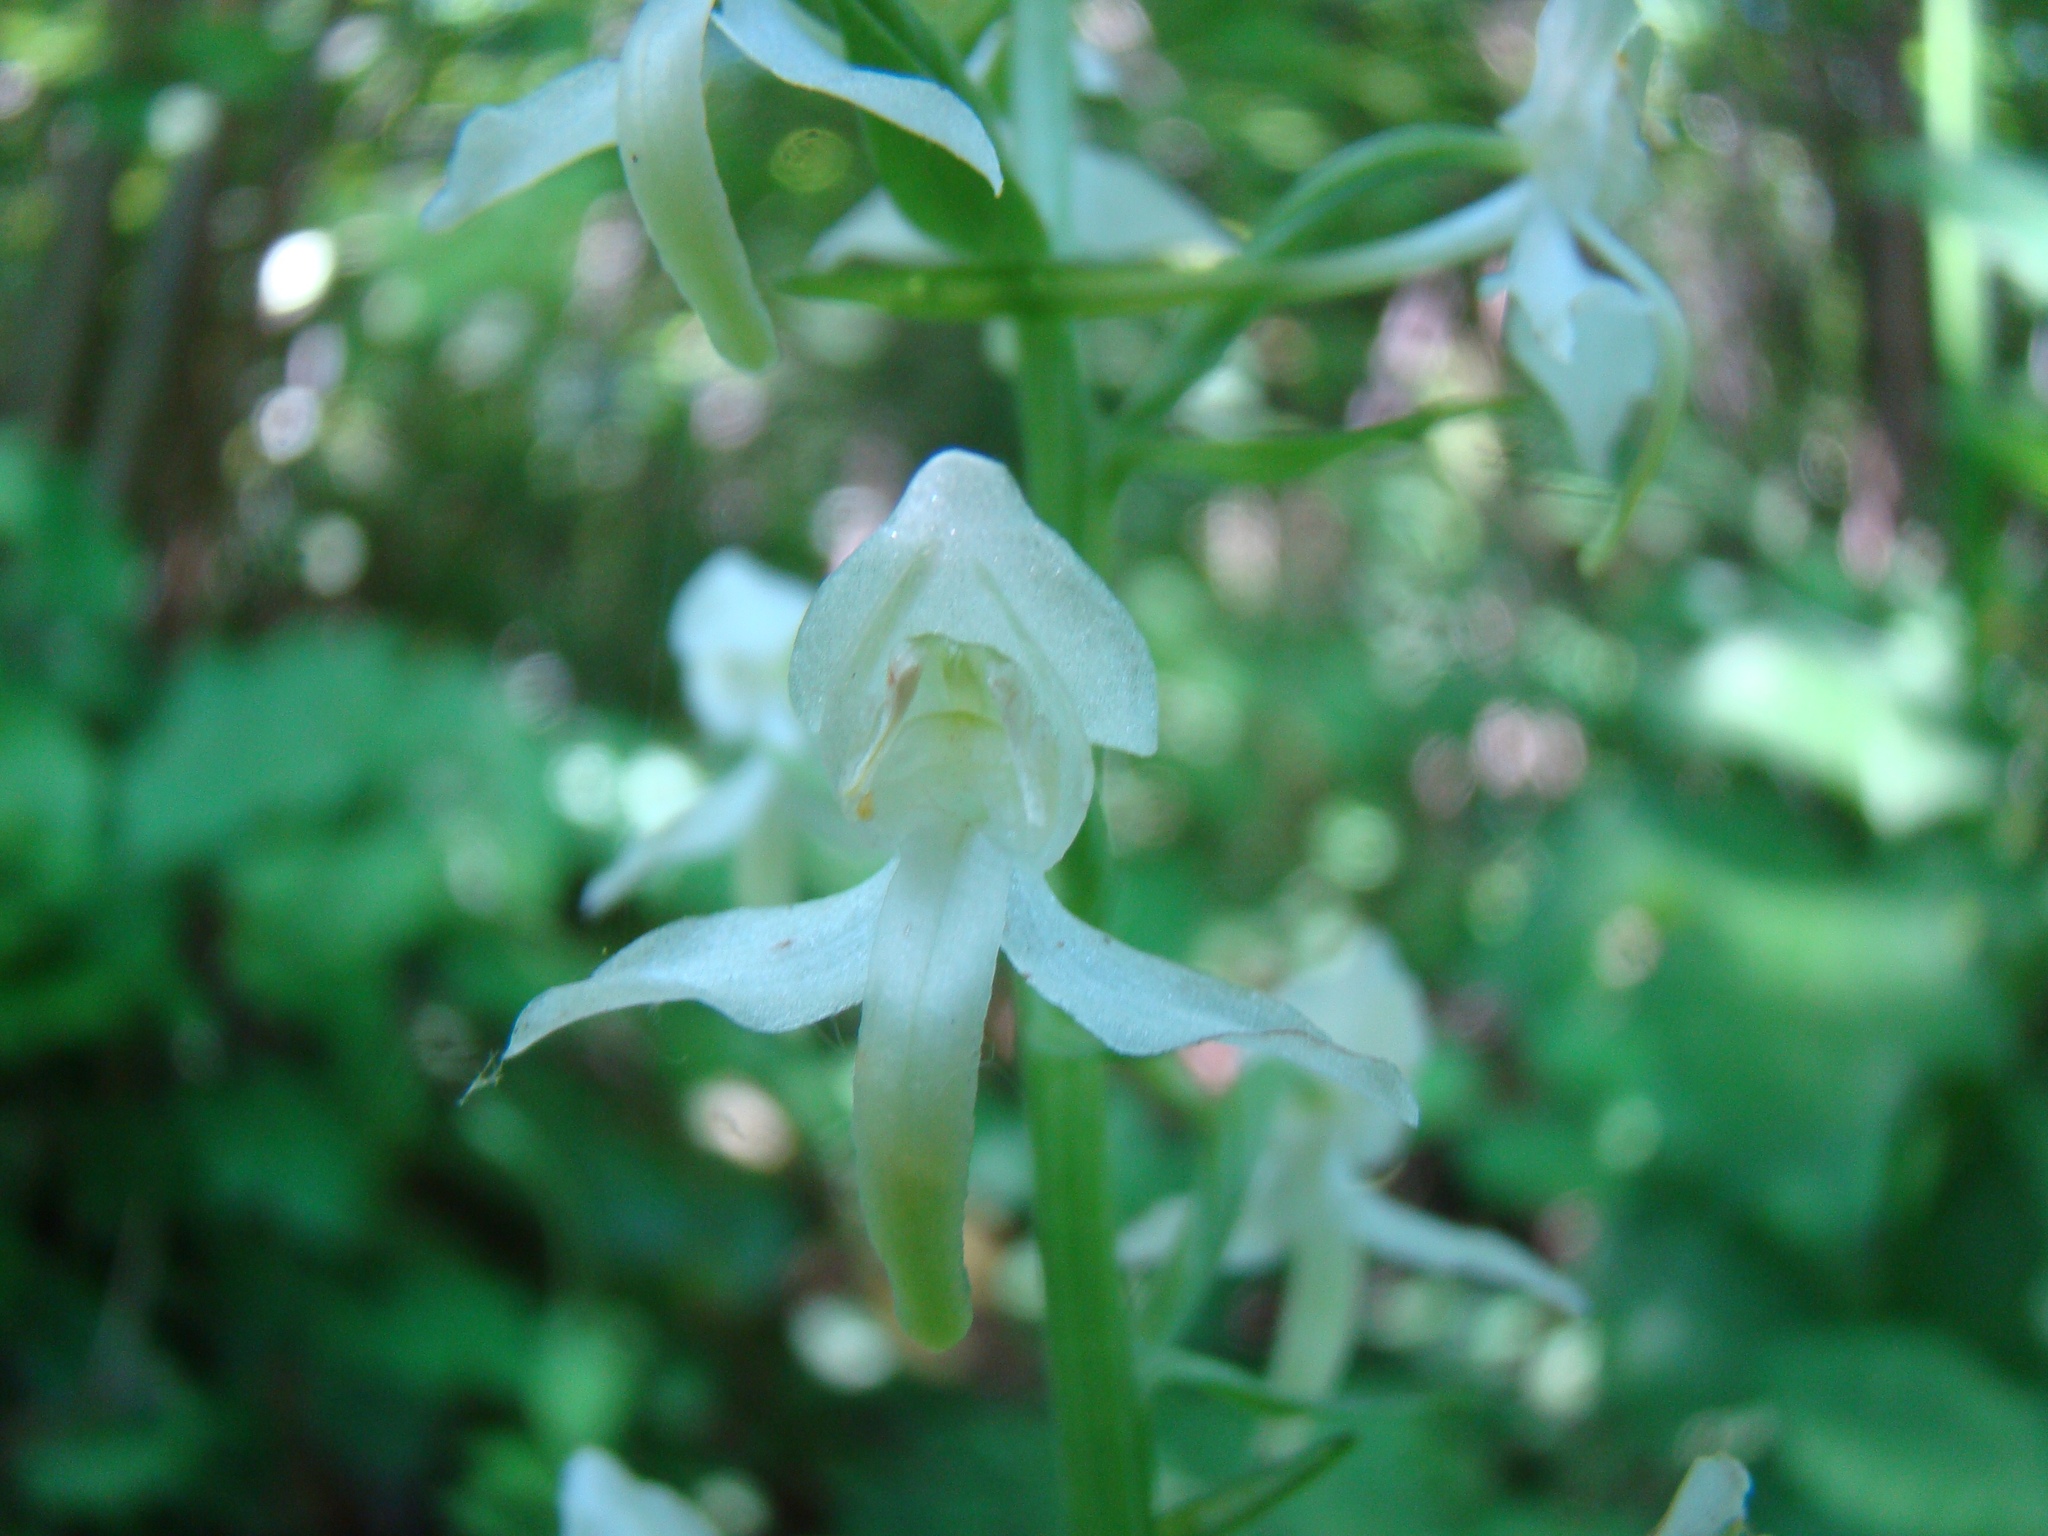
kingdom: Plantae
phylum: Tracheophyta
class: Liliopsida
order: Asparagales
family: Orchidaceae
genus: Platanthera
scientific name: Platanthera chlorantha
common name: Greater butterfly-orchid
